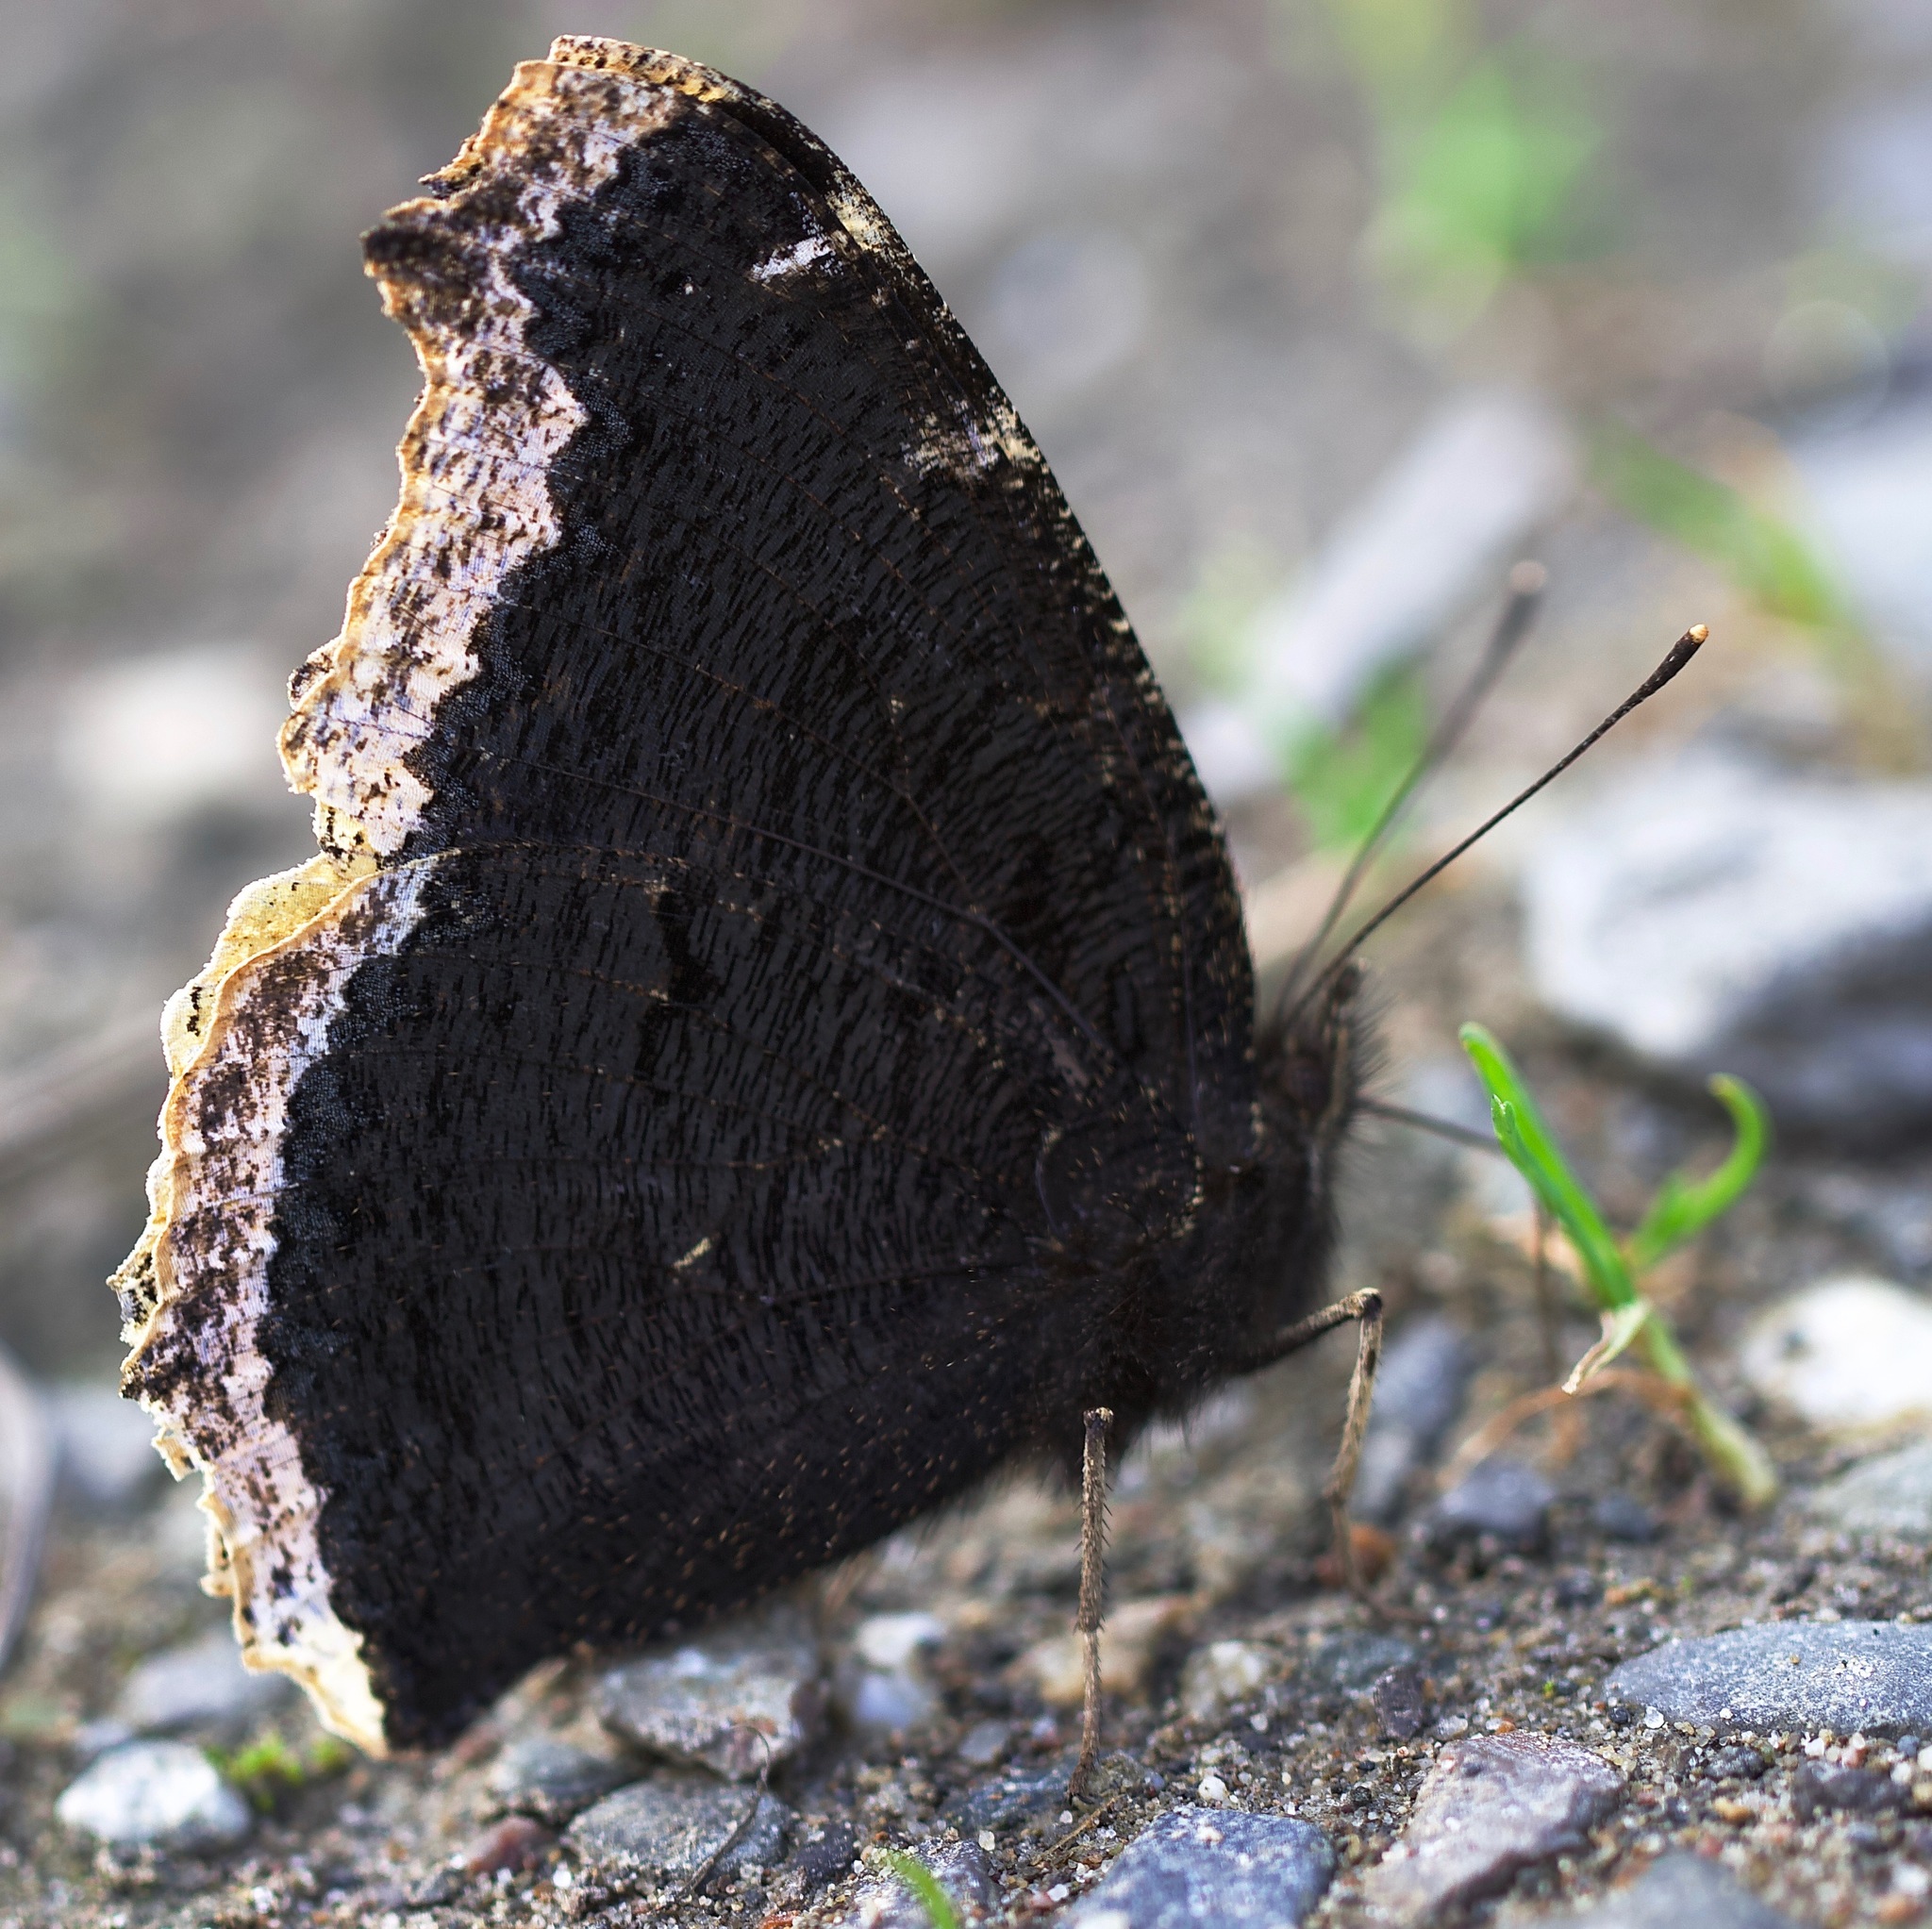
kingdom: Animalia
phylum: Arthropoda
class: Insecta
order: Lepidoptera
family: Nymphalidae
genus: Nymphalis
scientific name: Nymphalis antiopa
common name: Camberwell beauty
